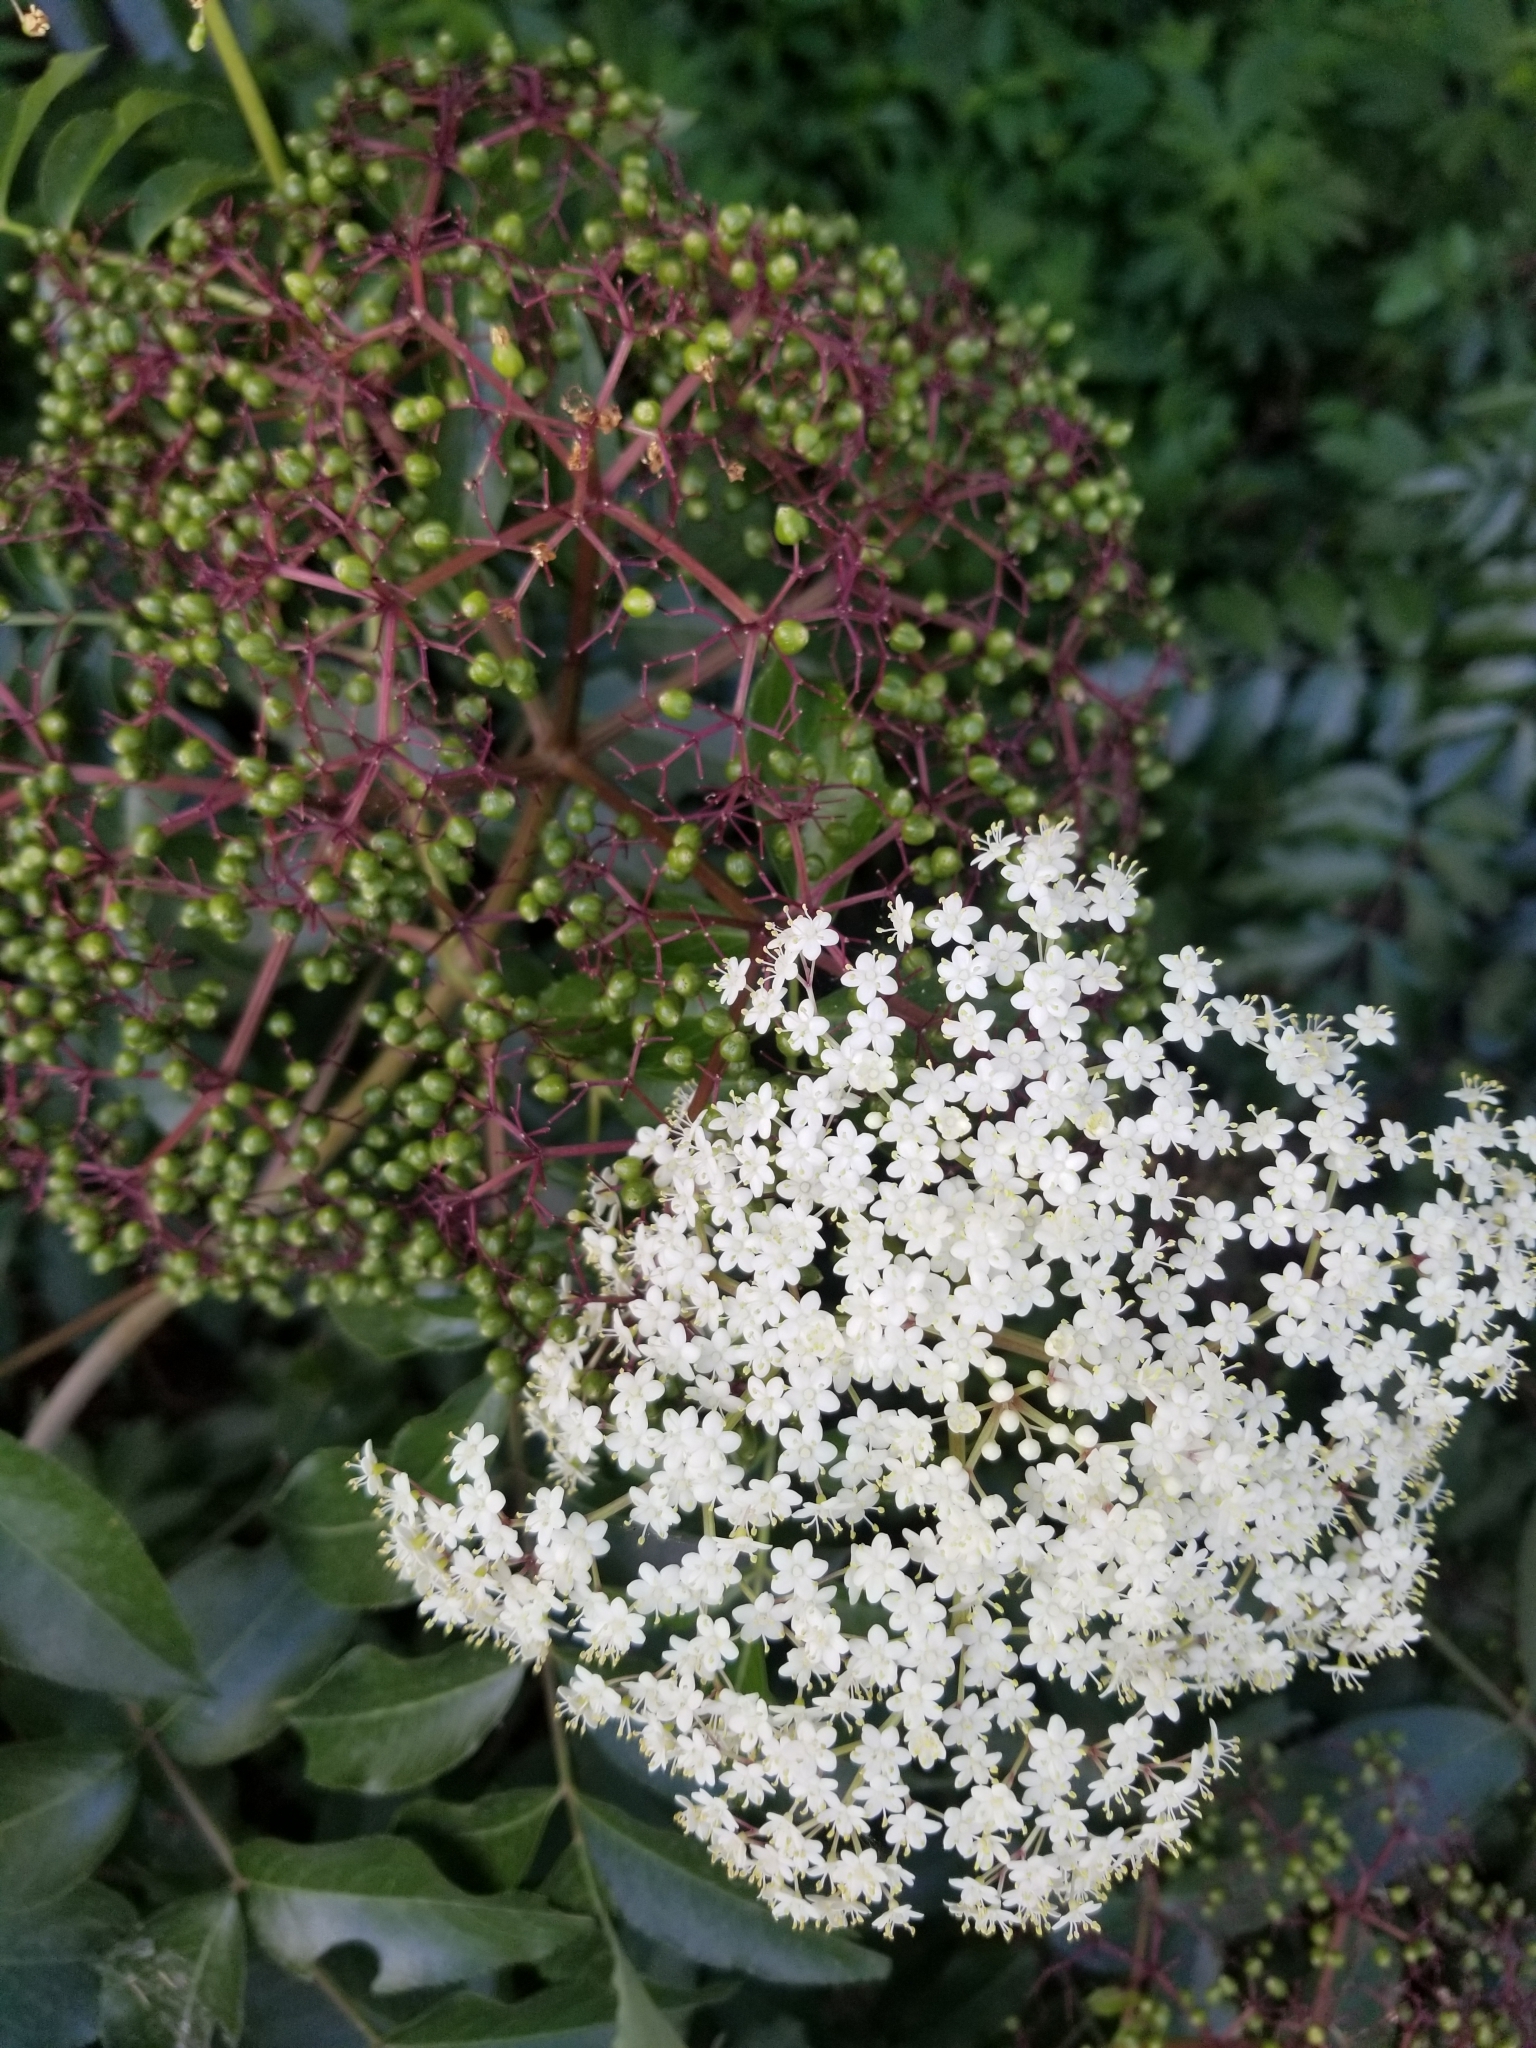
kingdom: Plantae
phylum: Tracheophyta
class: Magnoliopsida
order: Dipsacales
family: Viburnaceae
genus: Sambucus
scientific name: Sambucus canadensis
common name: American elder
